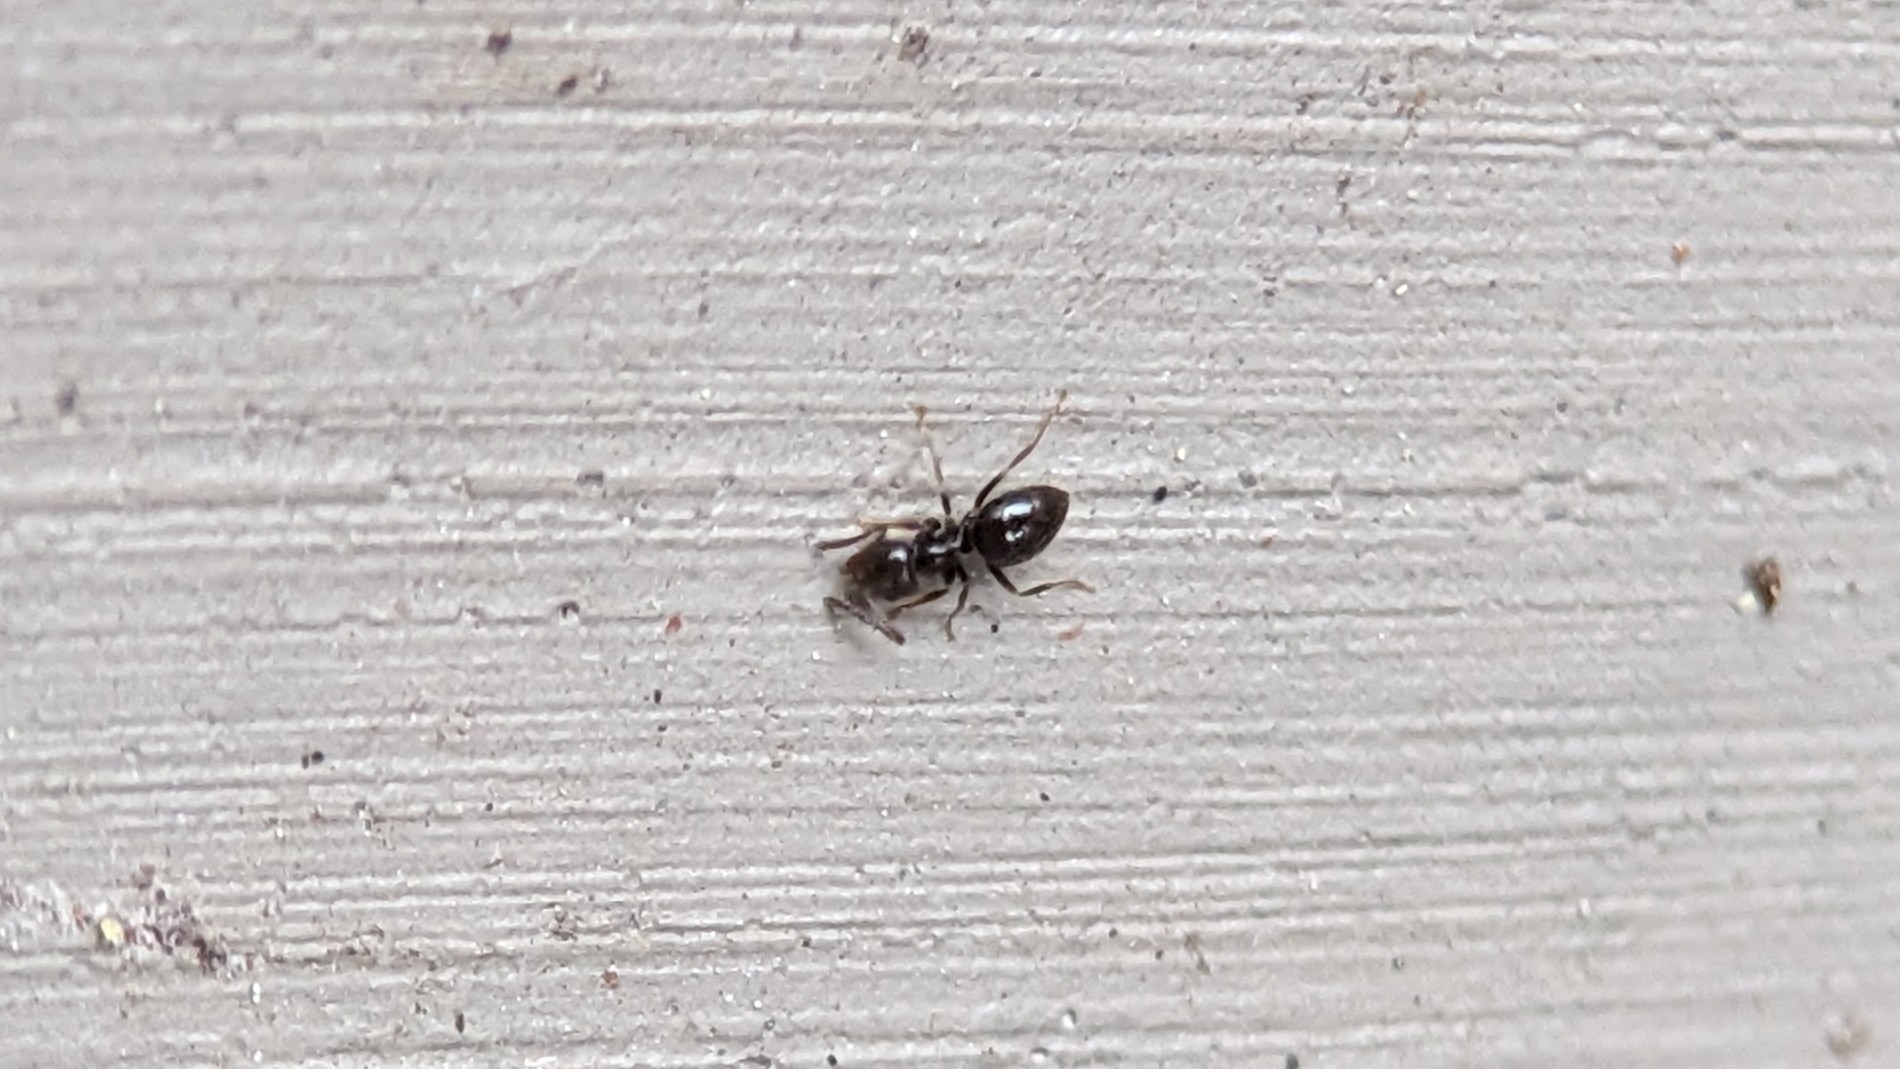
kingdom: Animalia
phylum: Arthropoda
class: Insecta
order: Hymenoptera
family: Formicidae
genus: Brachymyrmex
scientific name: Brachymyrmex patagonicus
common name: Dark rover ant
